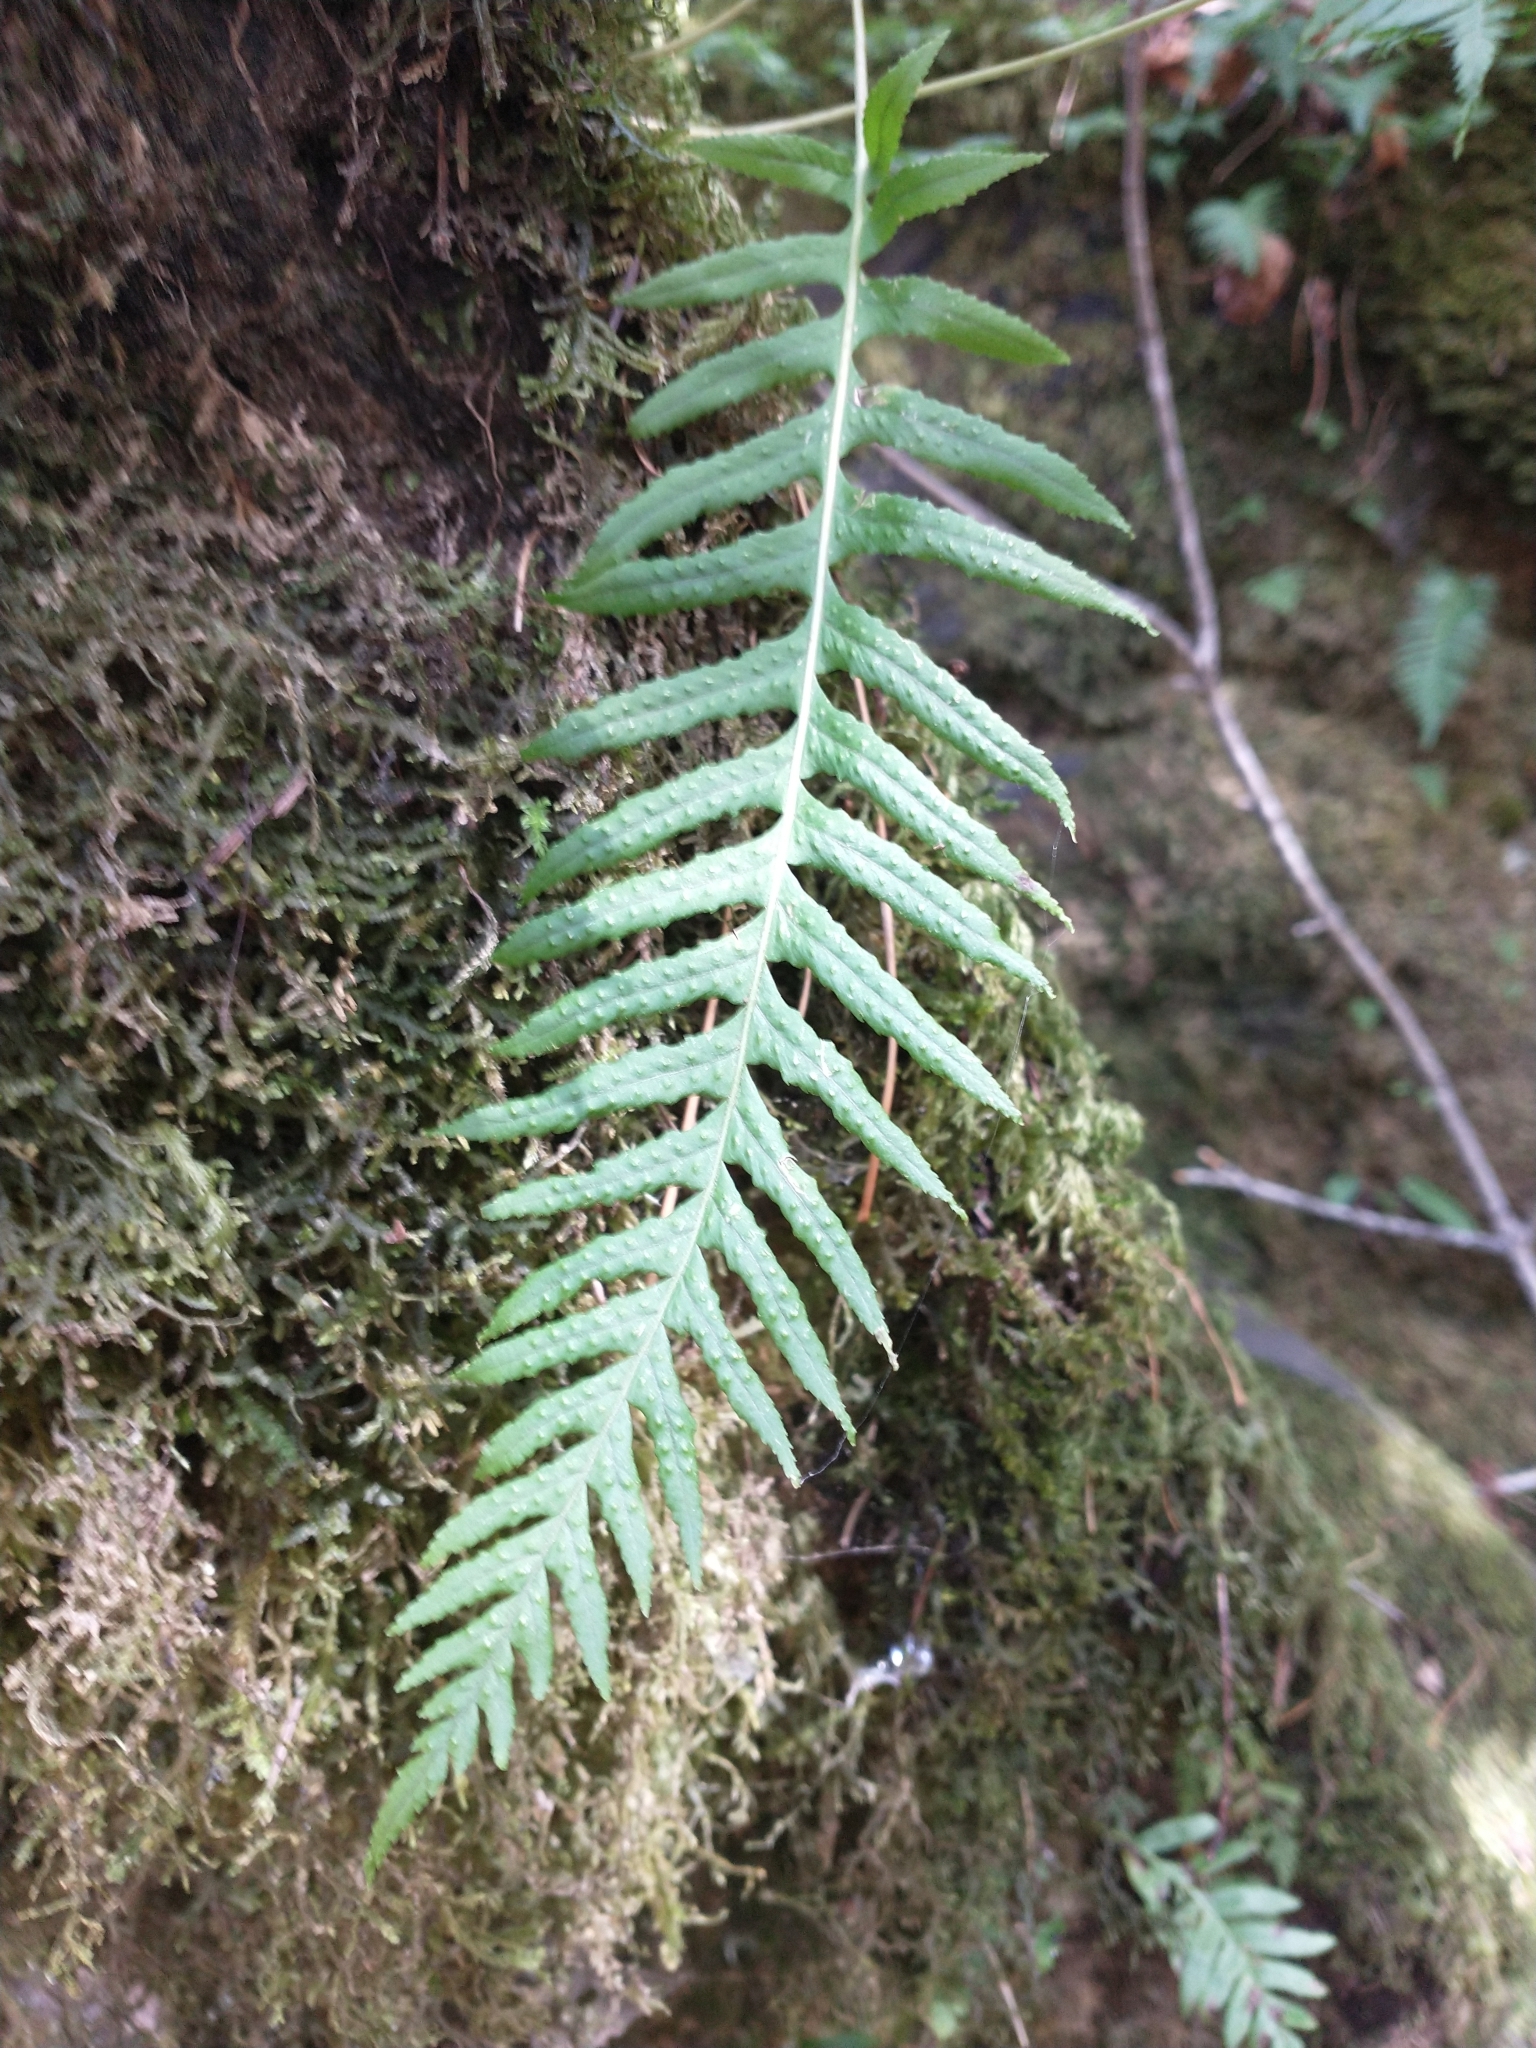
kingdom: Plantae
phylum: Tracheophyta
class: Polypodiopsida
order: Polypodiales
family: Polypodiaceae
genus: Polypodium
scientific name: Polypodium glycyrrhiza
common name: Licorice fern
